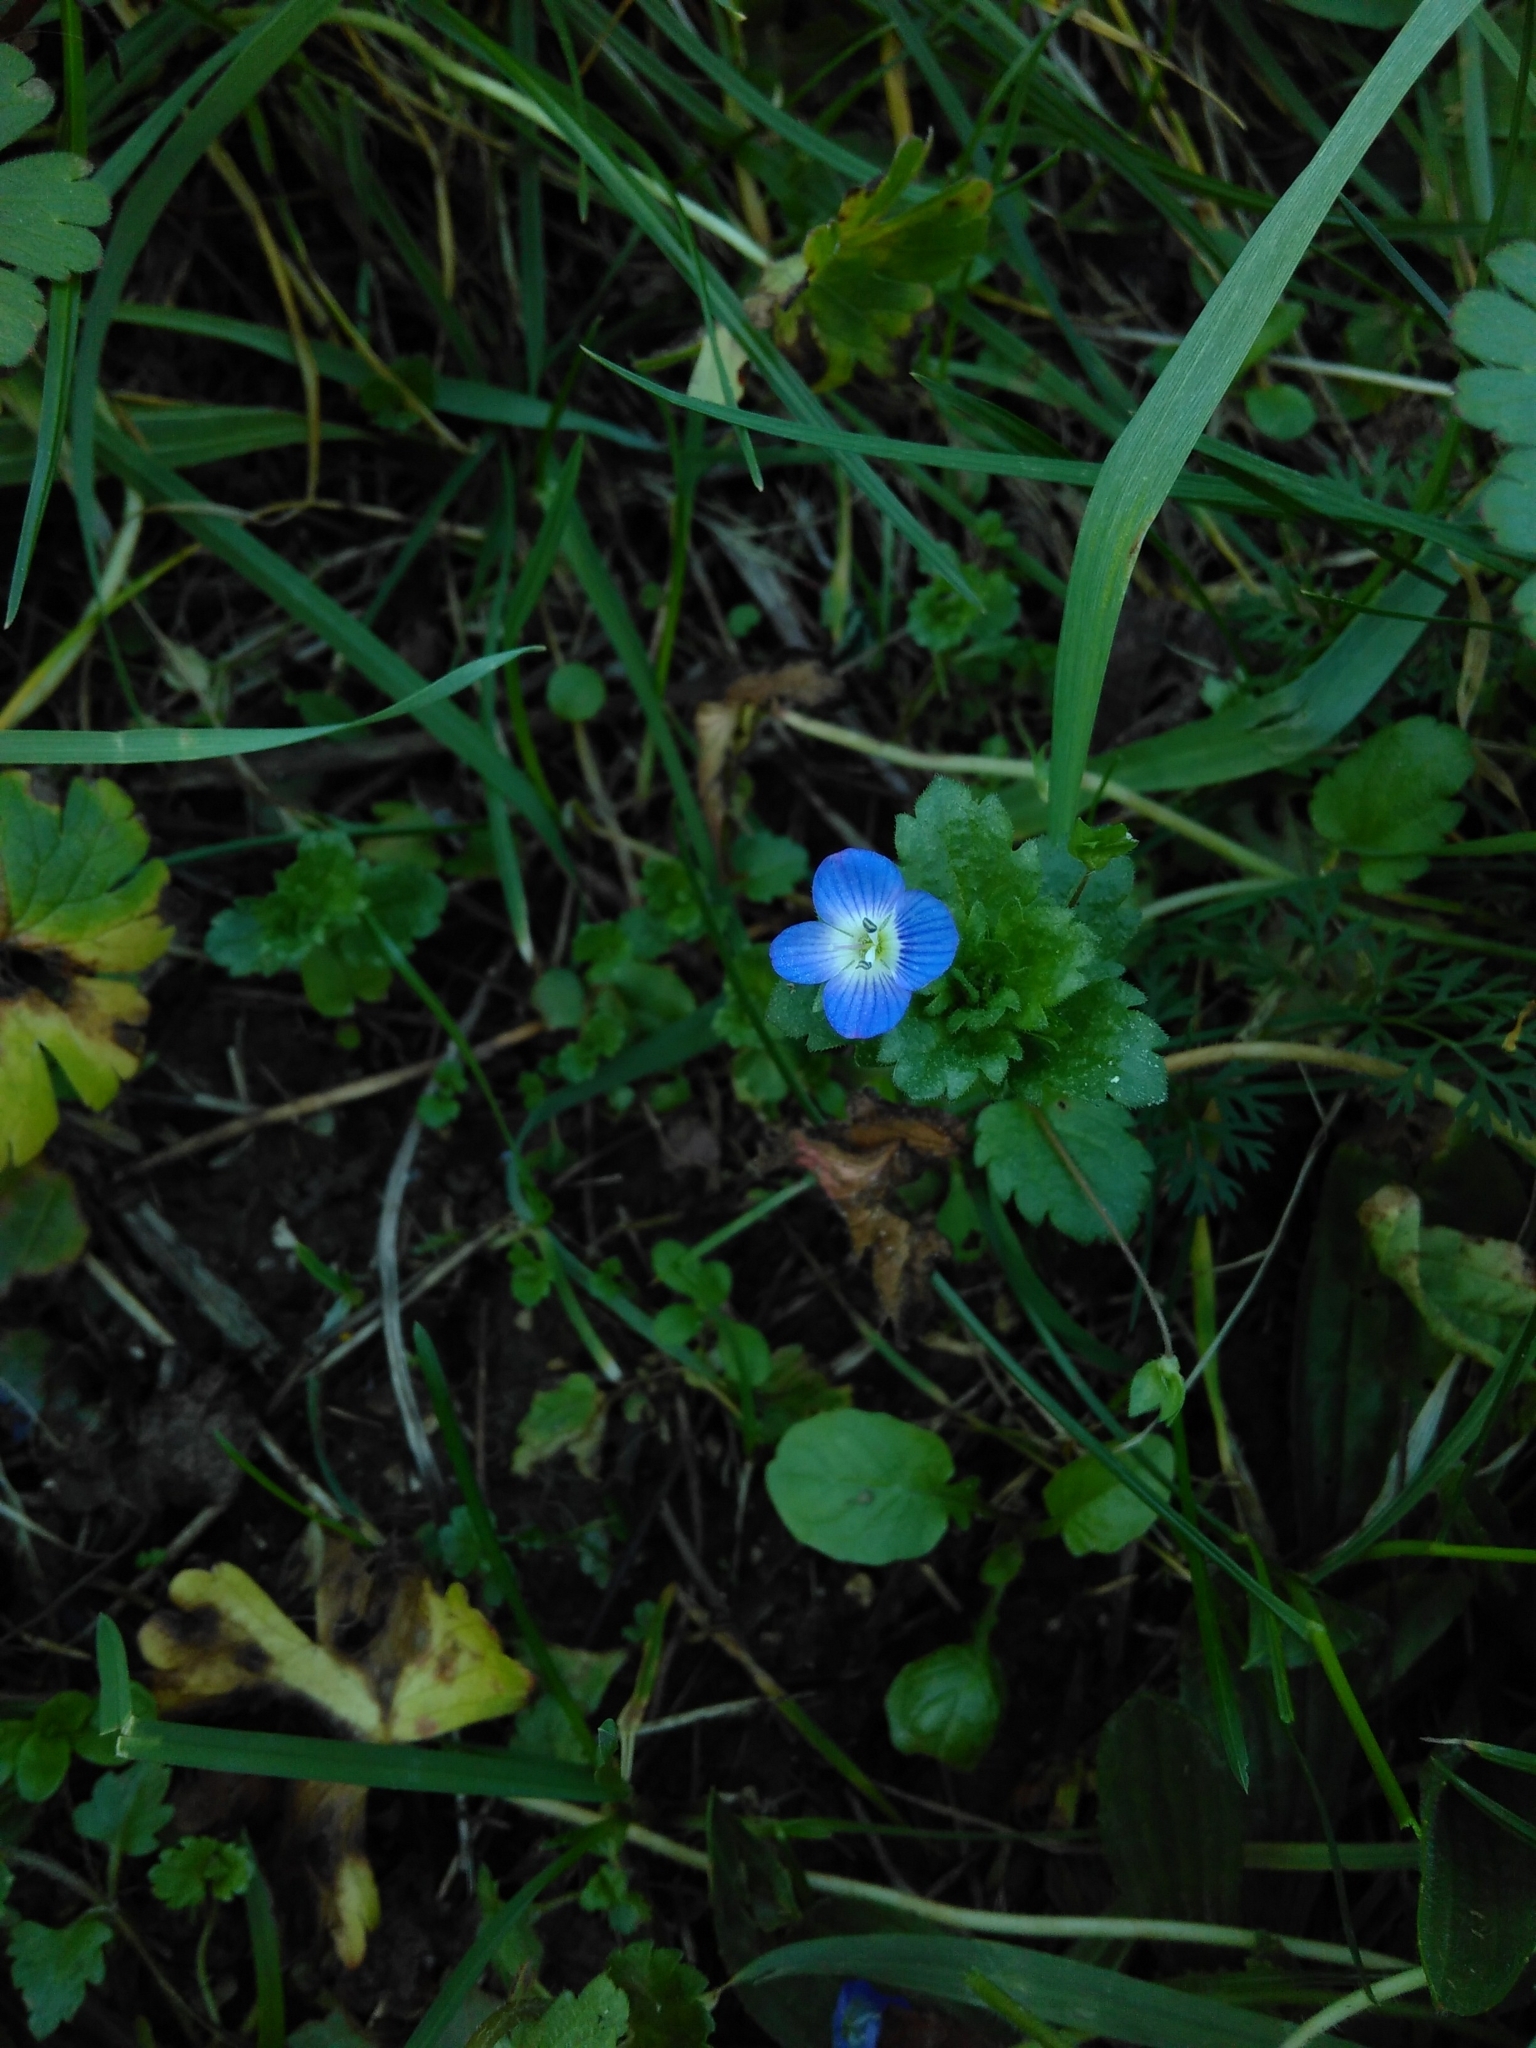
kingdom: Plantae
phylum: Tracheophyta
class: Magnoliopsida
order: Lamiales
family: Plantaginaceae
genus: Veronica
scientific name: Veronica persica
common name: Common field-speedwell
